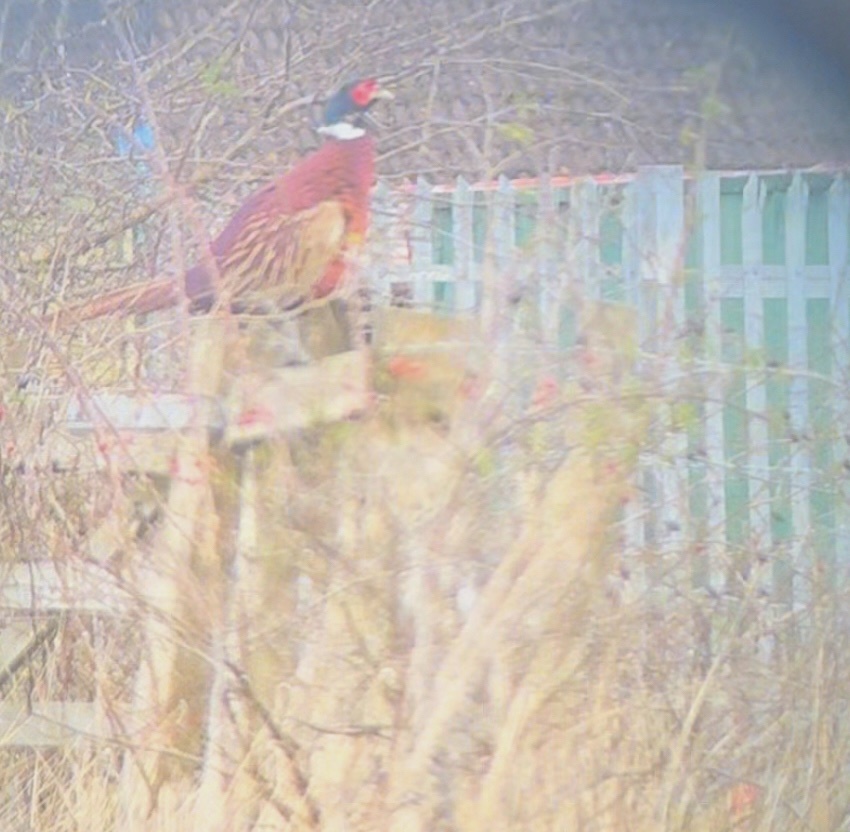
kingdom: Animalia
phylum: Chordata
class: Aves
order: Galliformes
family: Phasianidae
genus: Phasianus
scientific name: Phasianus colchicus
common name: Common pheasant
